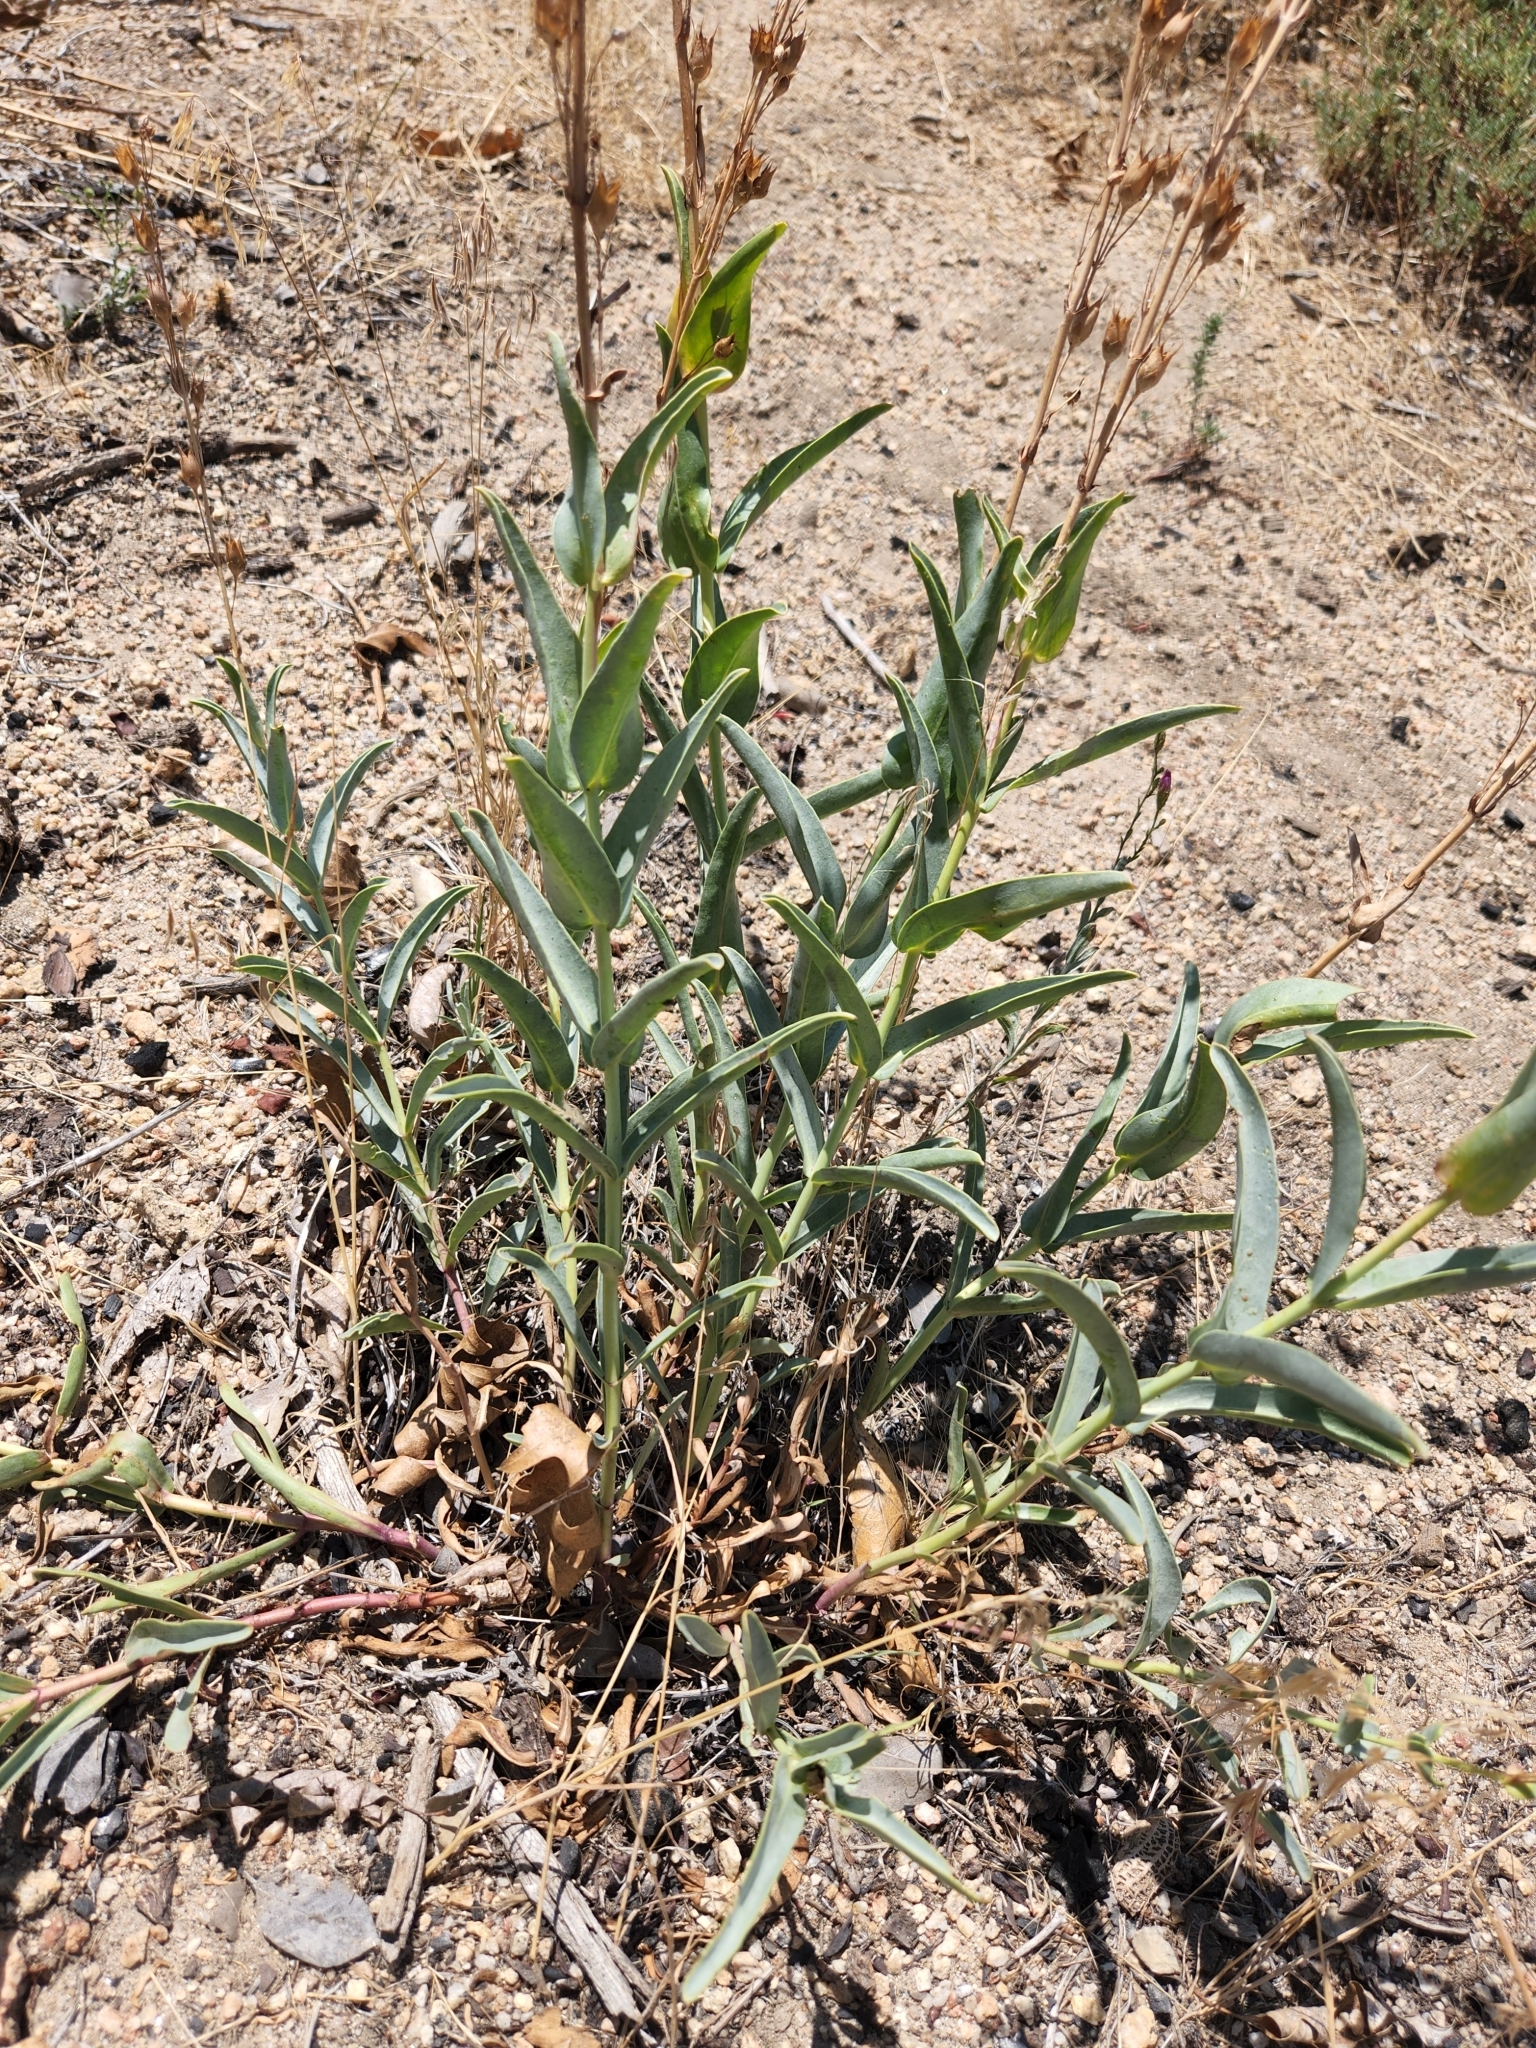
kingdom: Plantae
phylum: Tracheophyta
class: Magnoliopsida
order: Lamiales
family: Plantaginaceae
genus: Penstemon
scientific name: Penstemon centranthifolius
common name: Scarlet bugler
